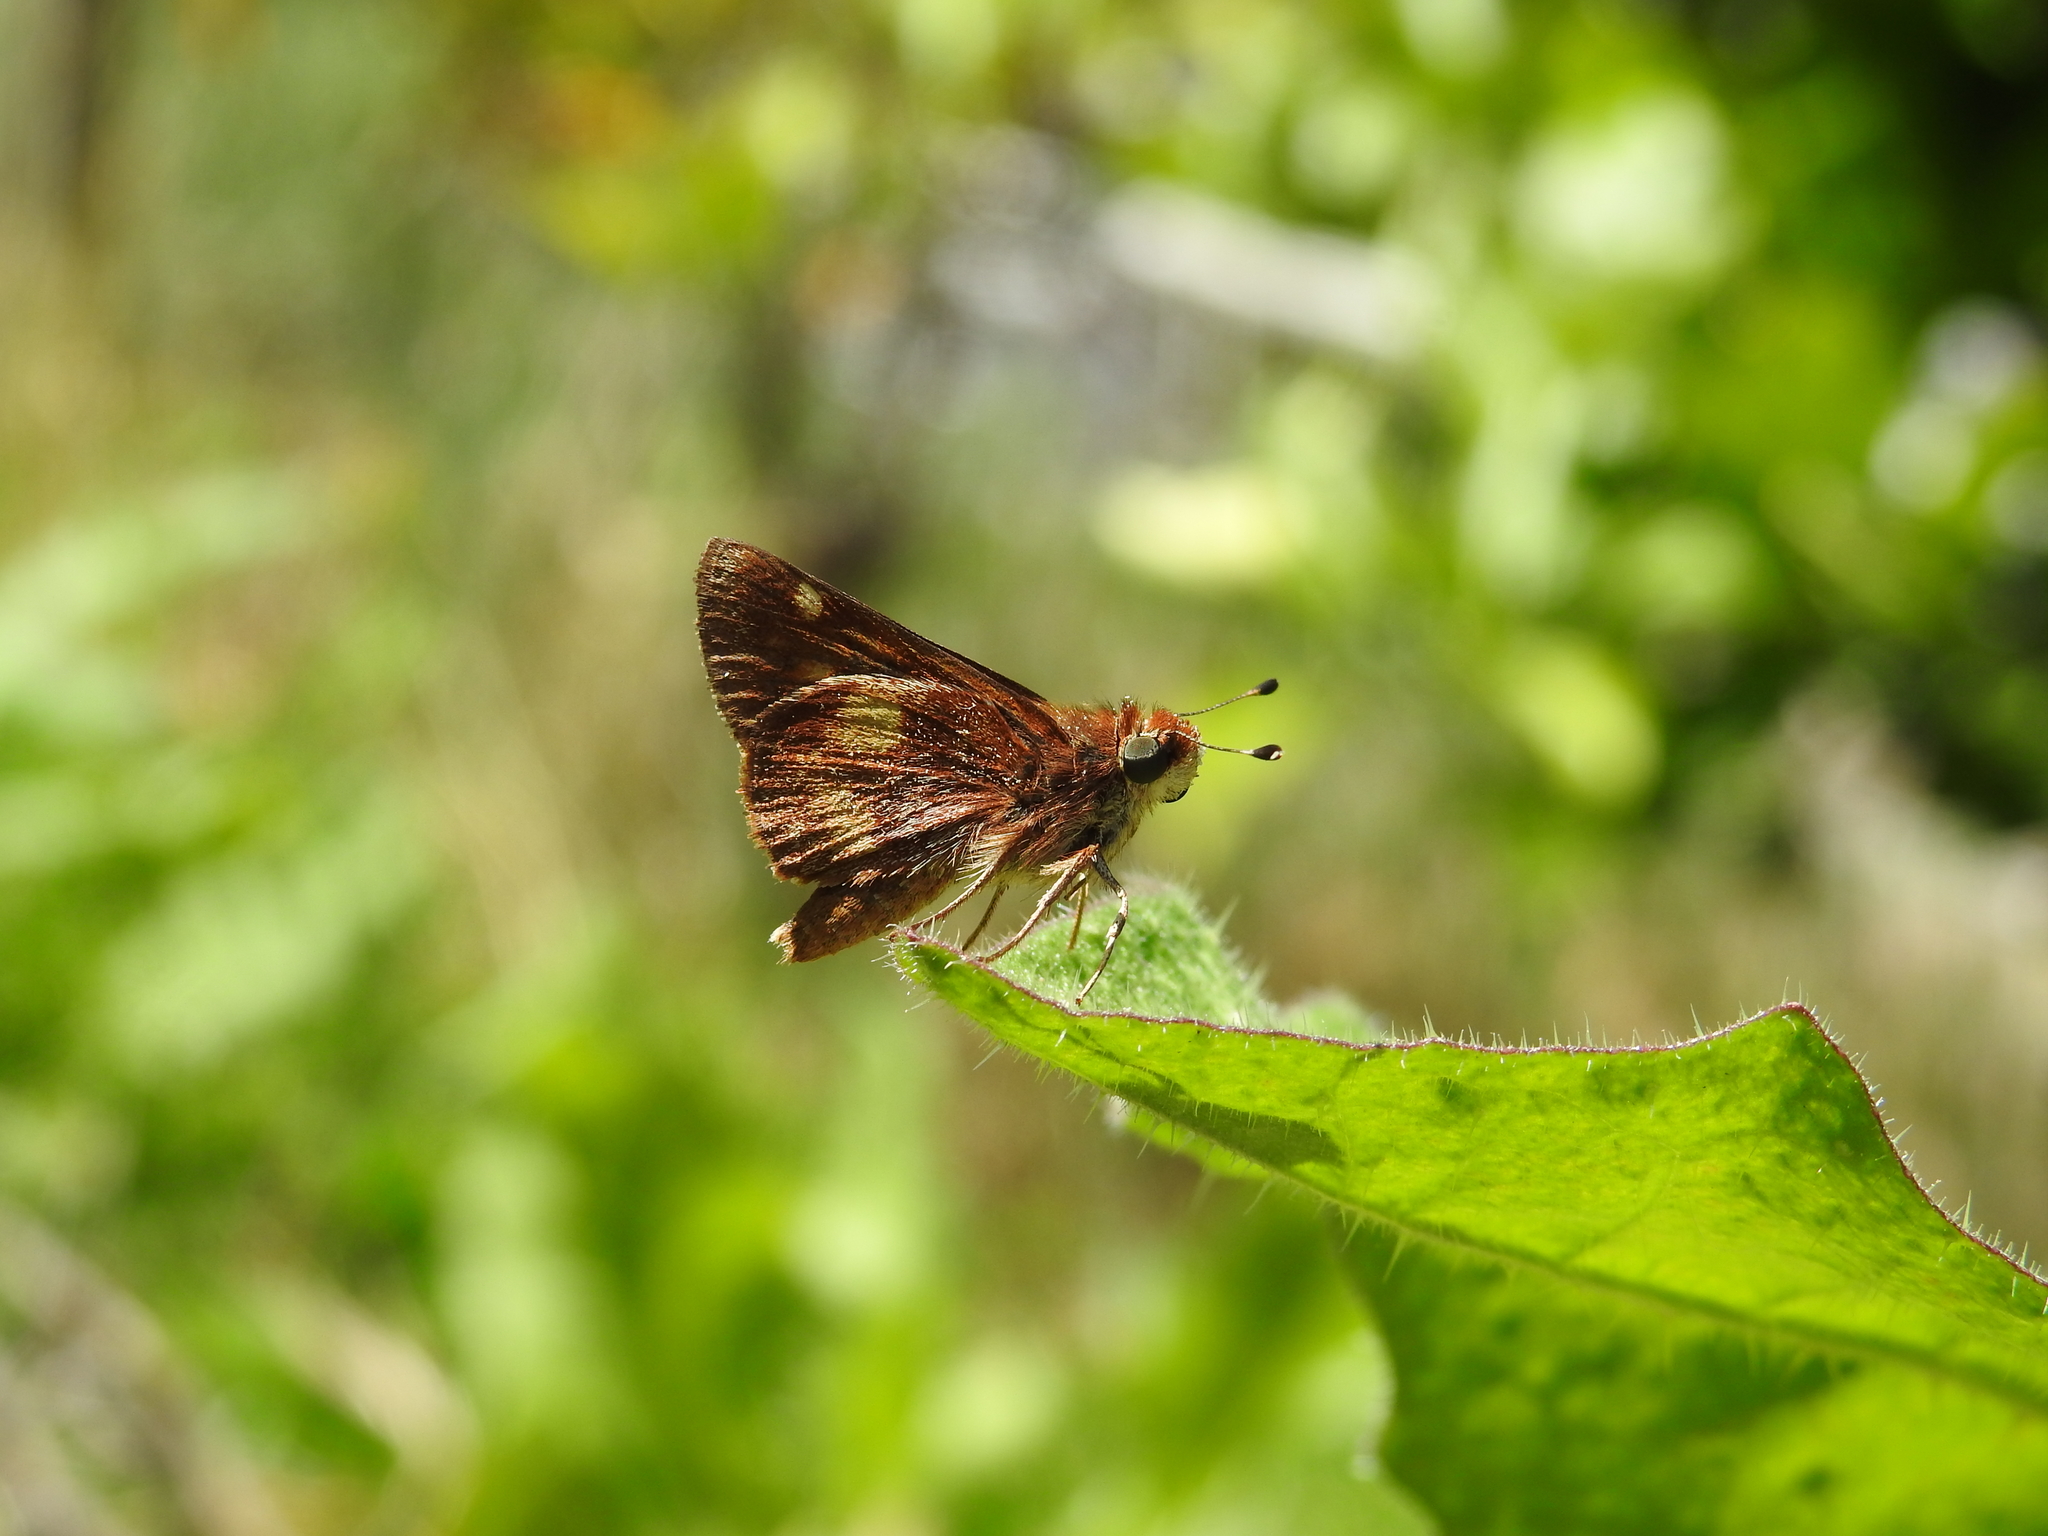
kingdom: Animalia
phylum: Arthropoda
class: Insecta
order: Lepidoptera
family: Hesperiidae
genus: Lon
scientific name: Lon melane
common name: Umber skipper
